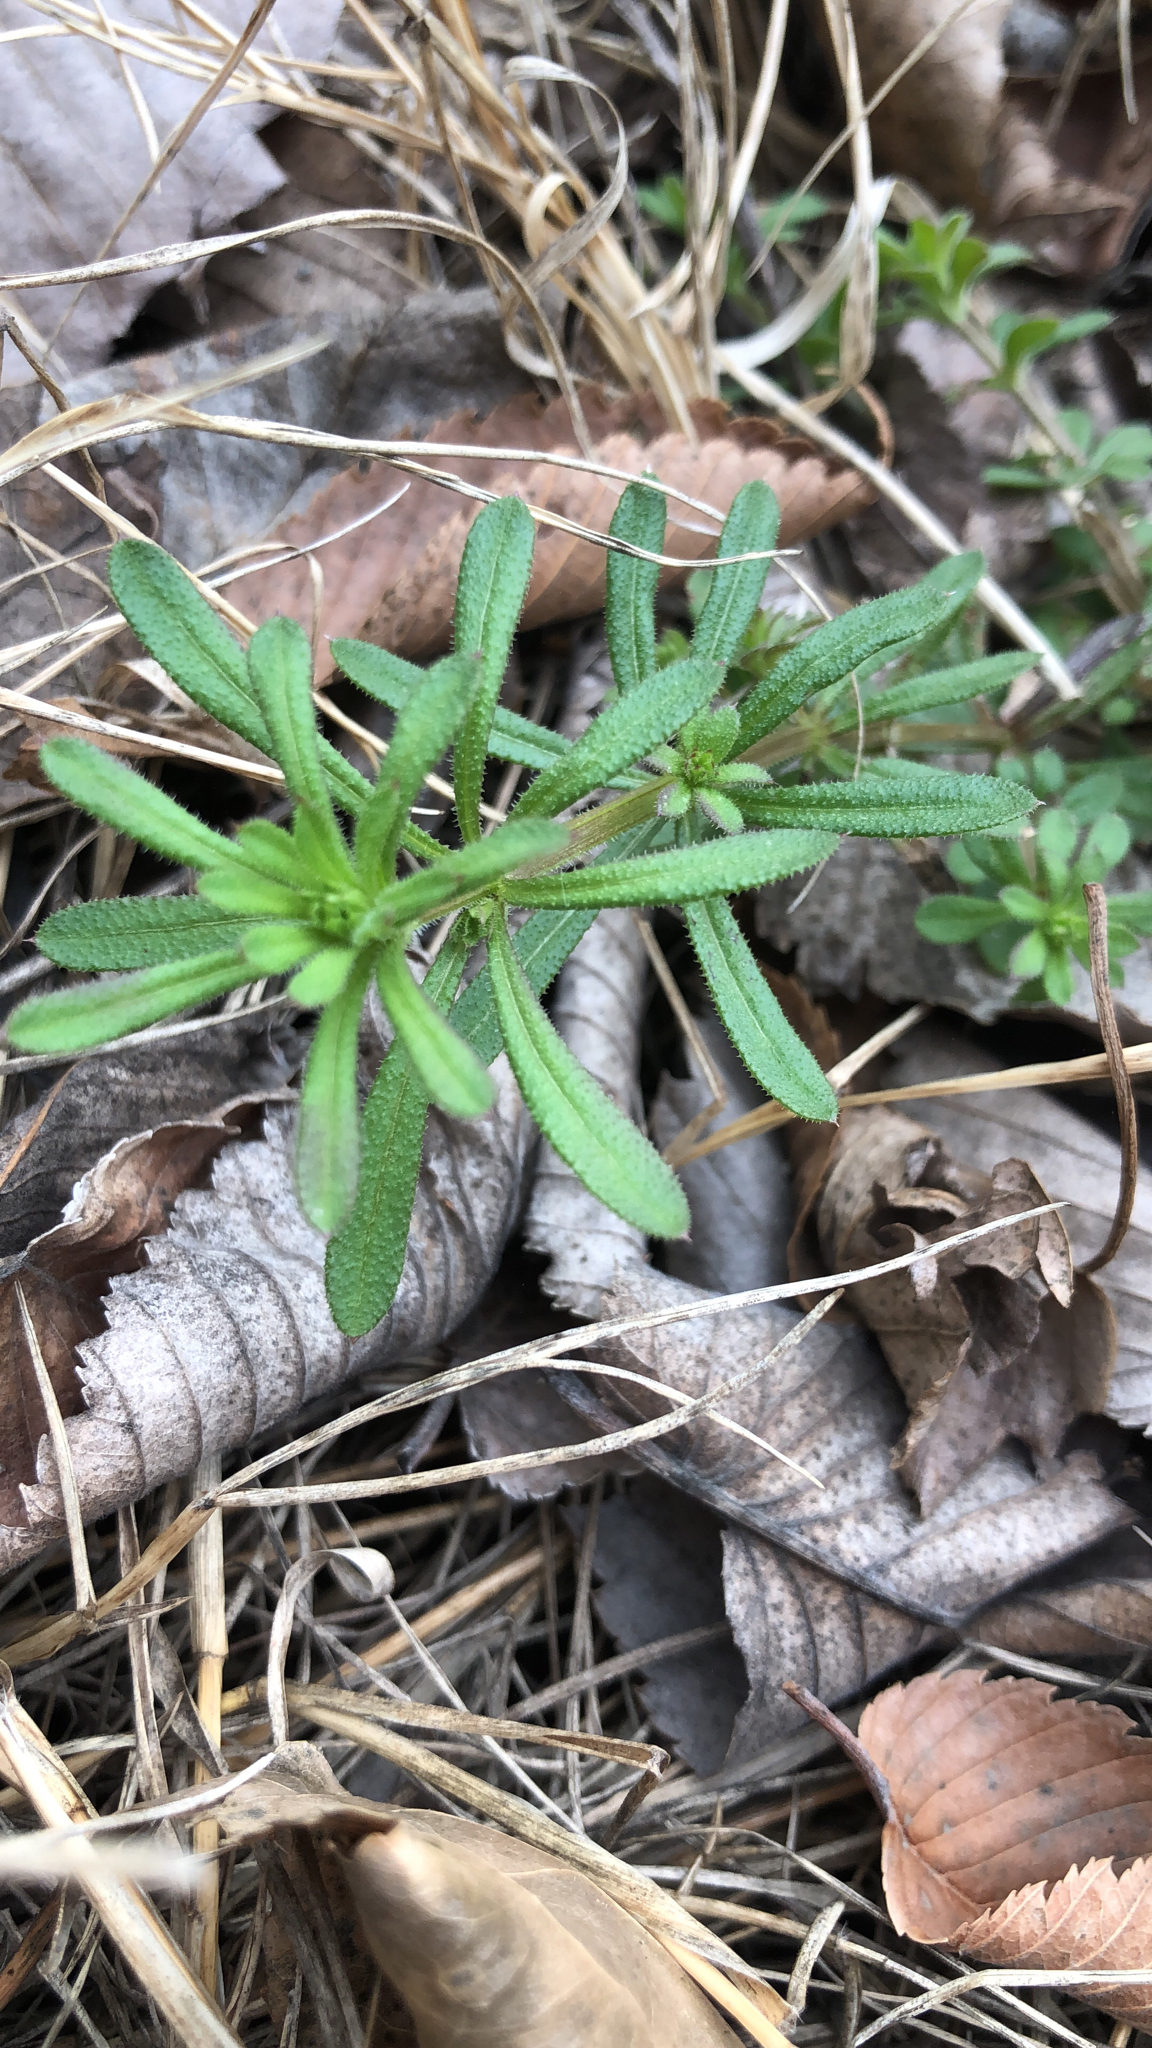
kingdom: Plantae
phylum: Tracheophyta
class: Magnoliopsida
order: Gentianales
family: Rubiaceae
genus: Galium
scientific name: Galium aparine
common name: Cleavers
